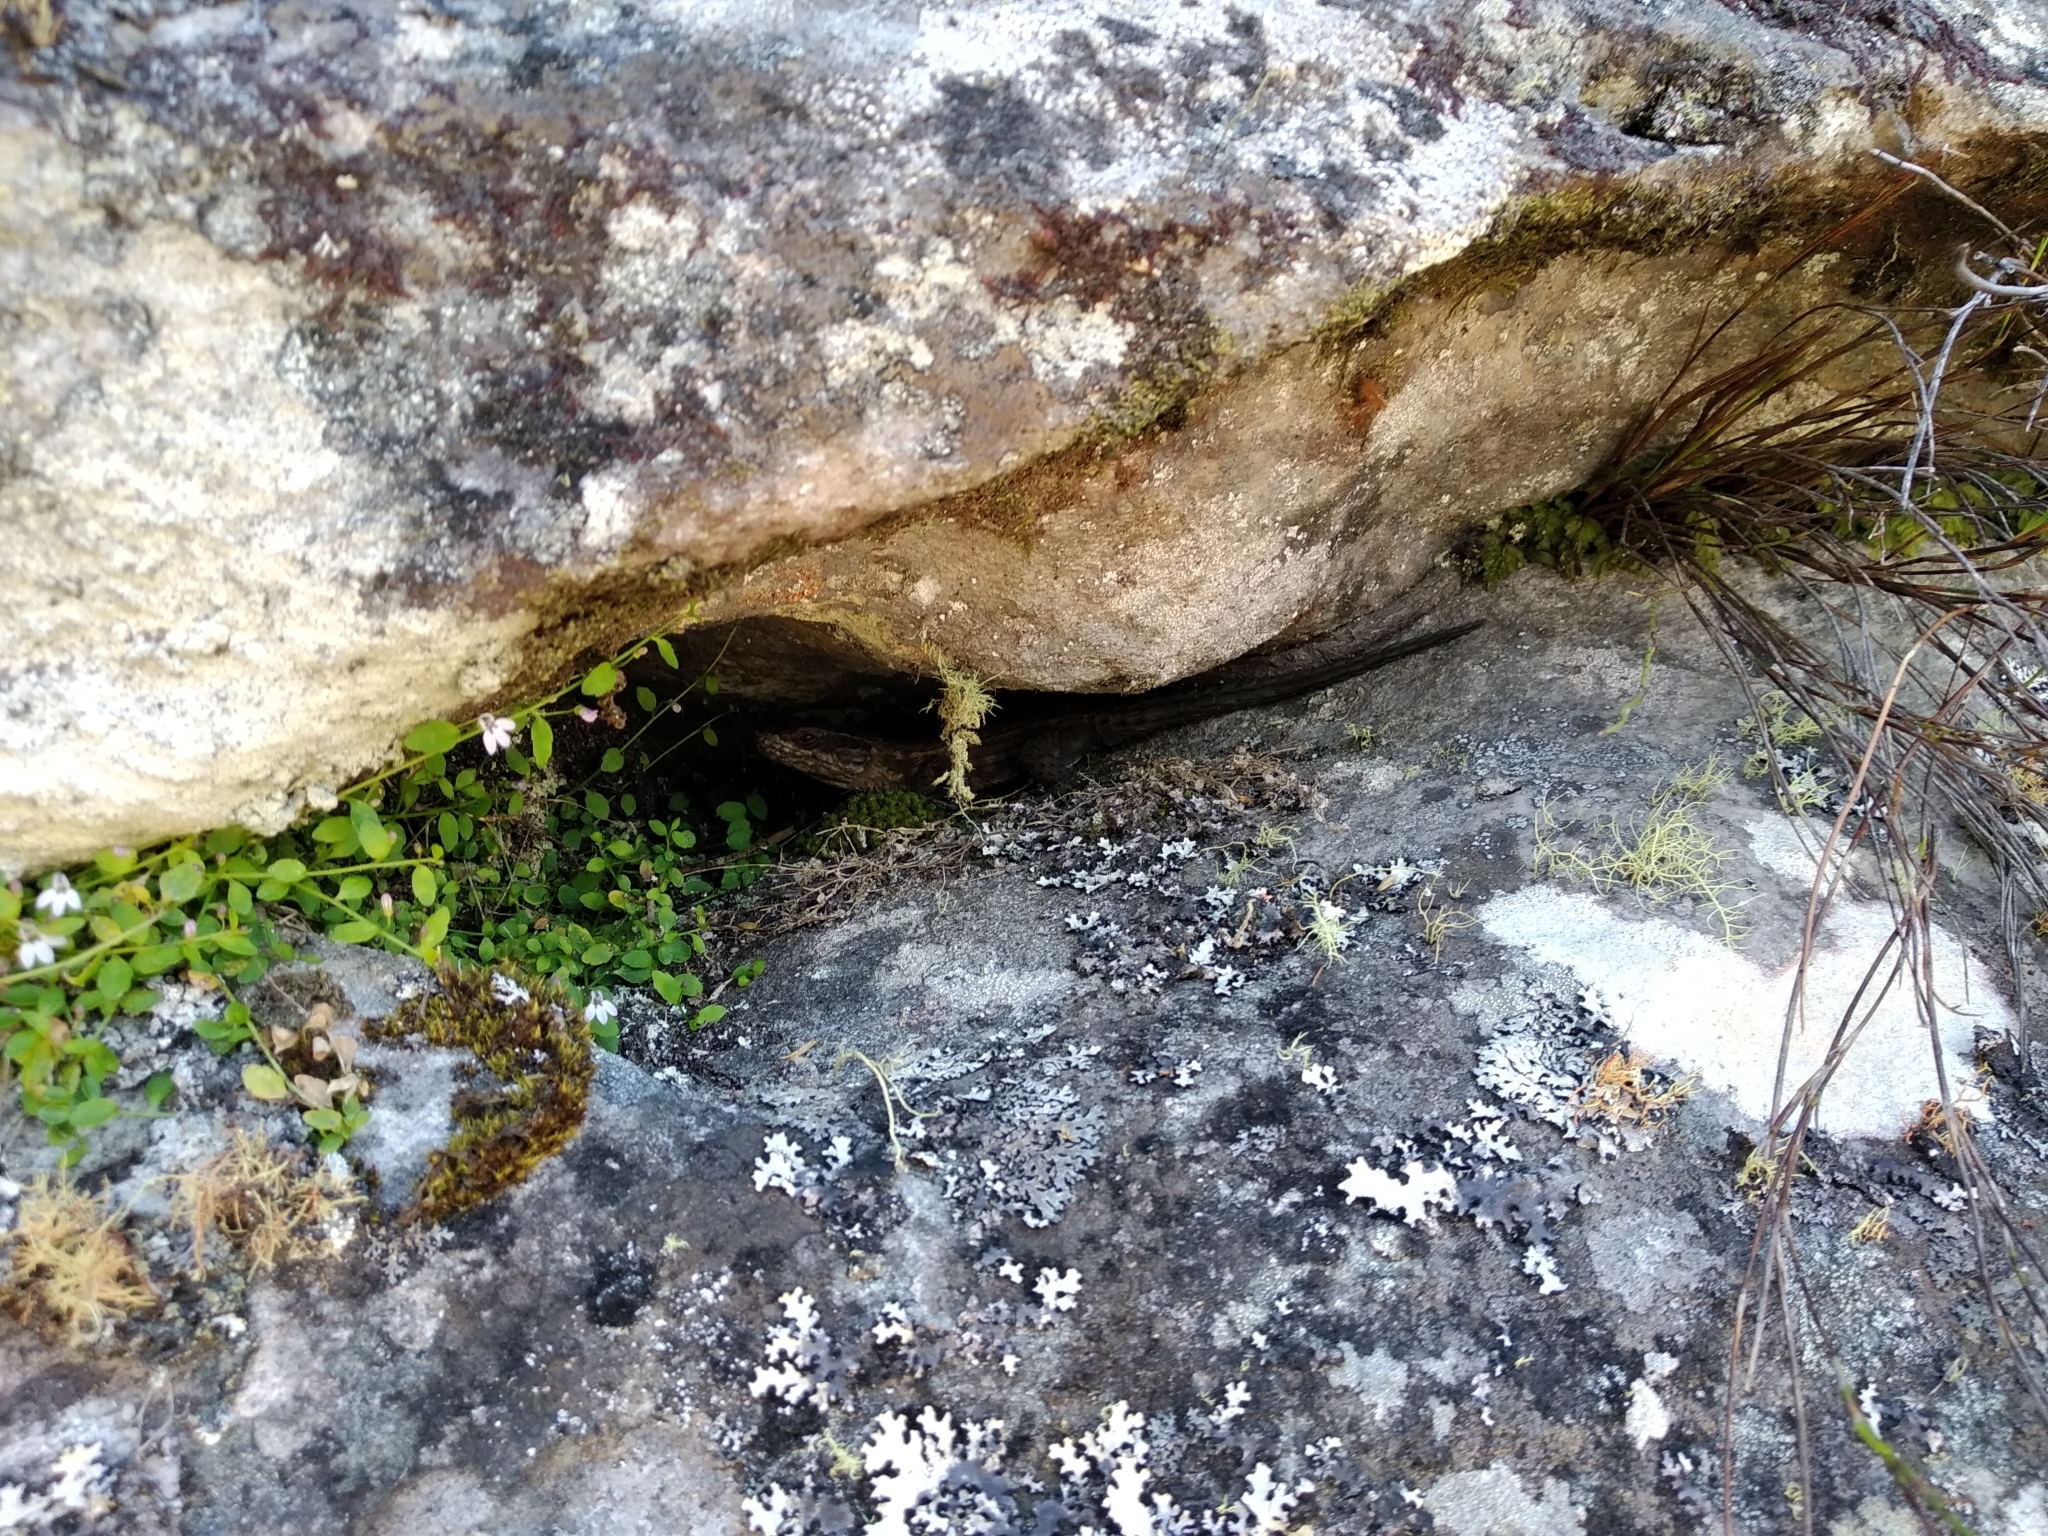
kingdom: Animalia
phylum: Chordata
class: Squamata
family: Cordylidae
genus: Cordylus
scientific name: Cordylus niger
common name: Black girdled lizard
